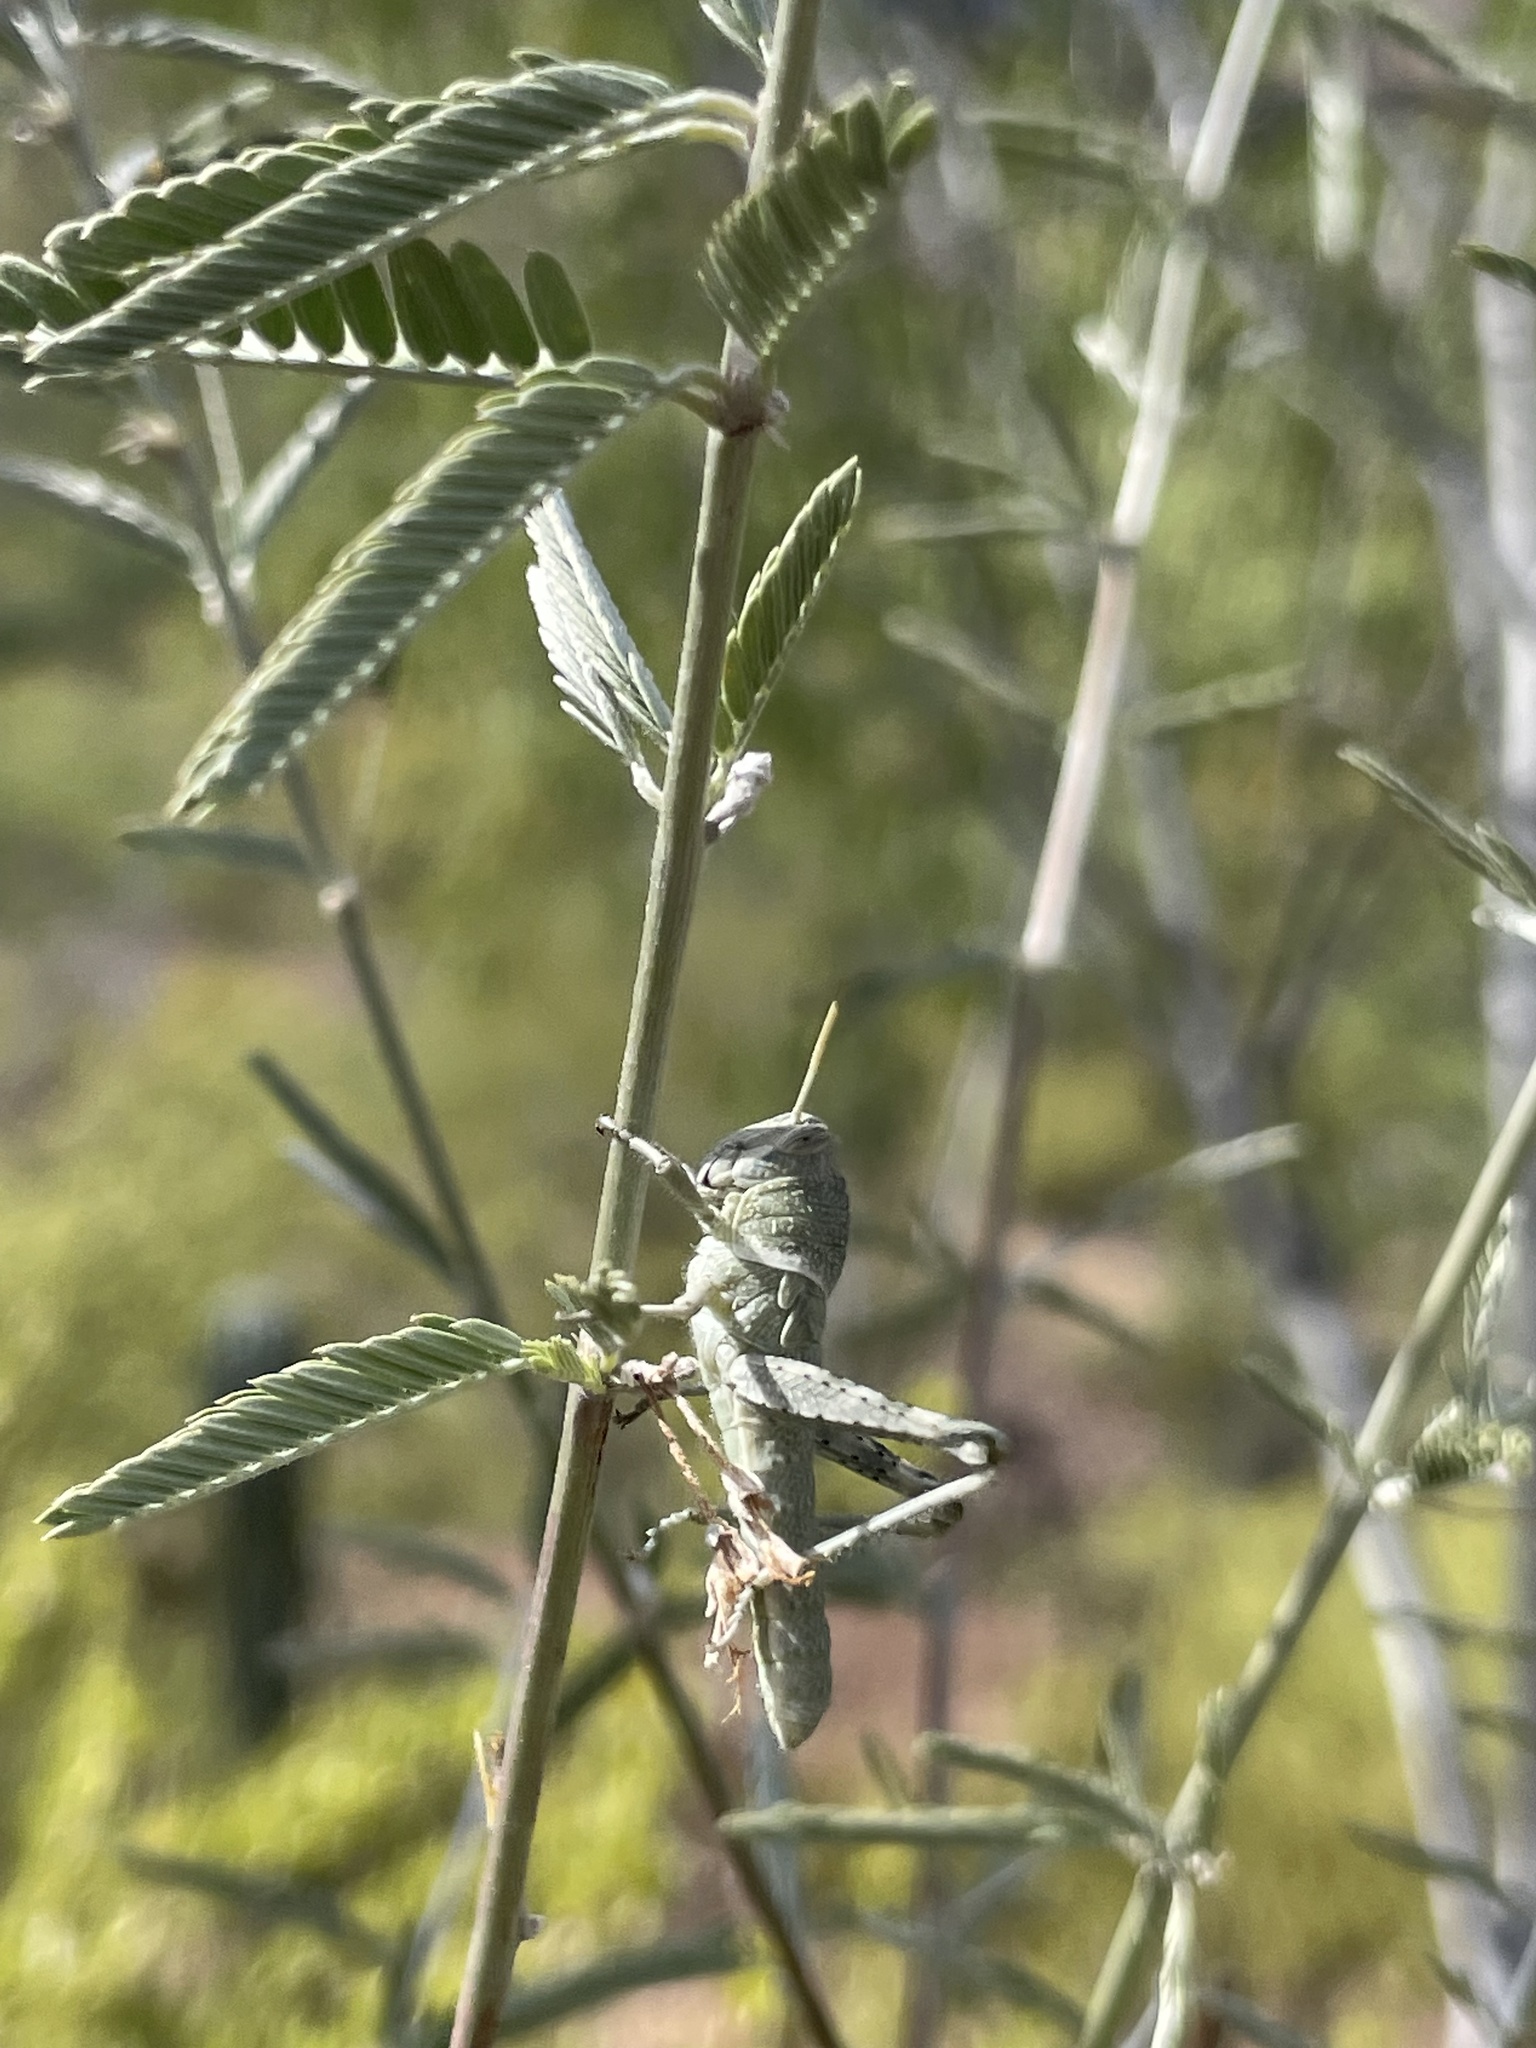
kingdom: Animalia
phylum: Arthropoda
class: Insecta
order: Orthoptera
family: Acrididae
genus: Schistocerca
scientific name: Schistocerca nitens
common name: Vagrant grasshopper
